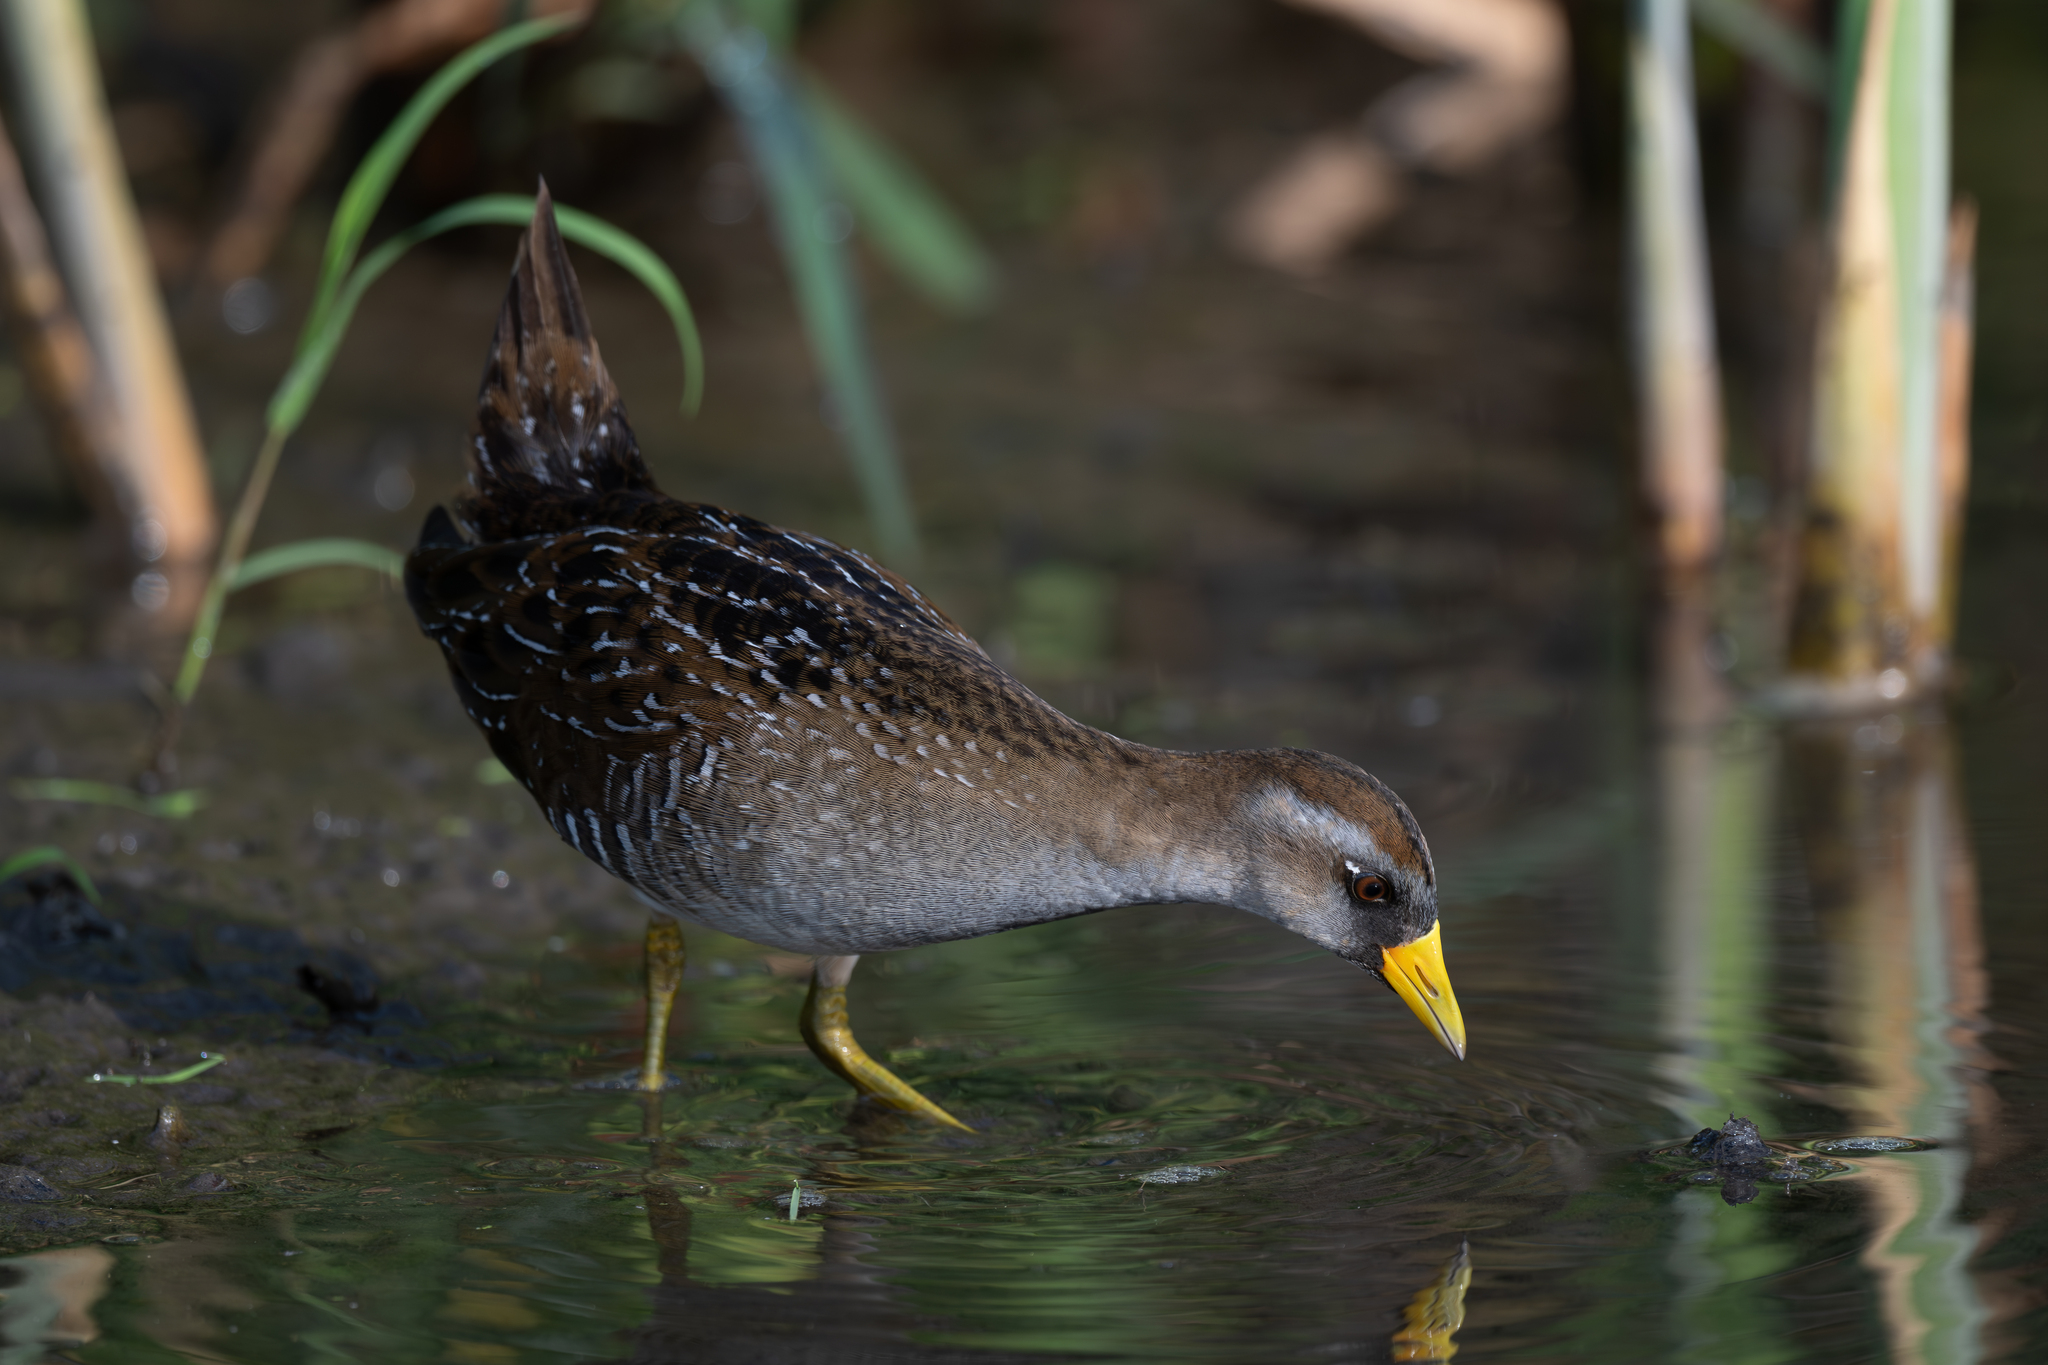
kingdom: Animalia
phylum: Chordata
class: Aves
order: Gruiformes
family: Rallidae
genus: Porzana
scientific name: Porzana carolina
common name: Sora
